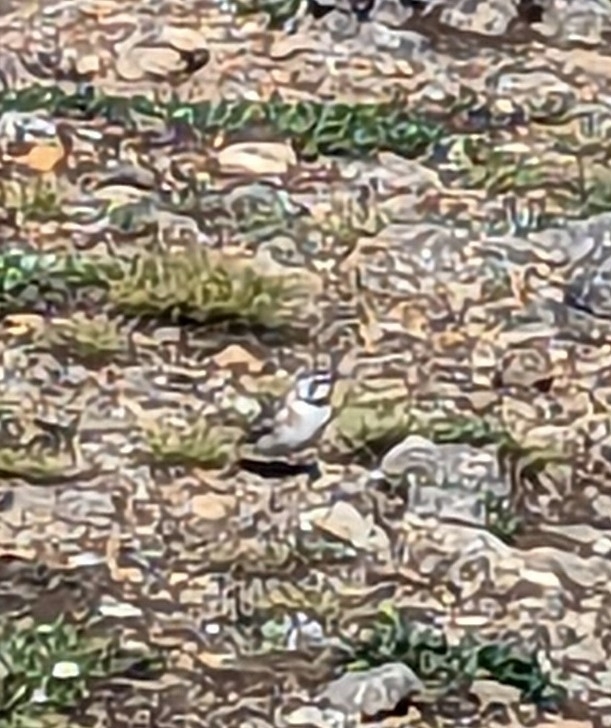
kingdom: Animalia
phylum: Chordata
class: Aves
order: Passeriformes
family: Alaudidae
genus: Eremophila
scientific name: Eremophila alpestris
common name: Horned lark
